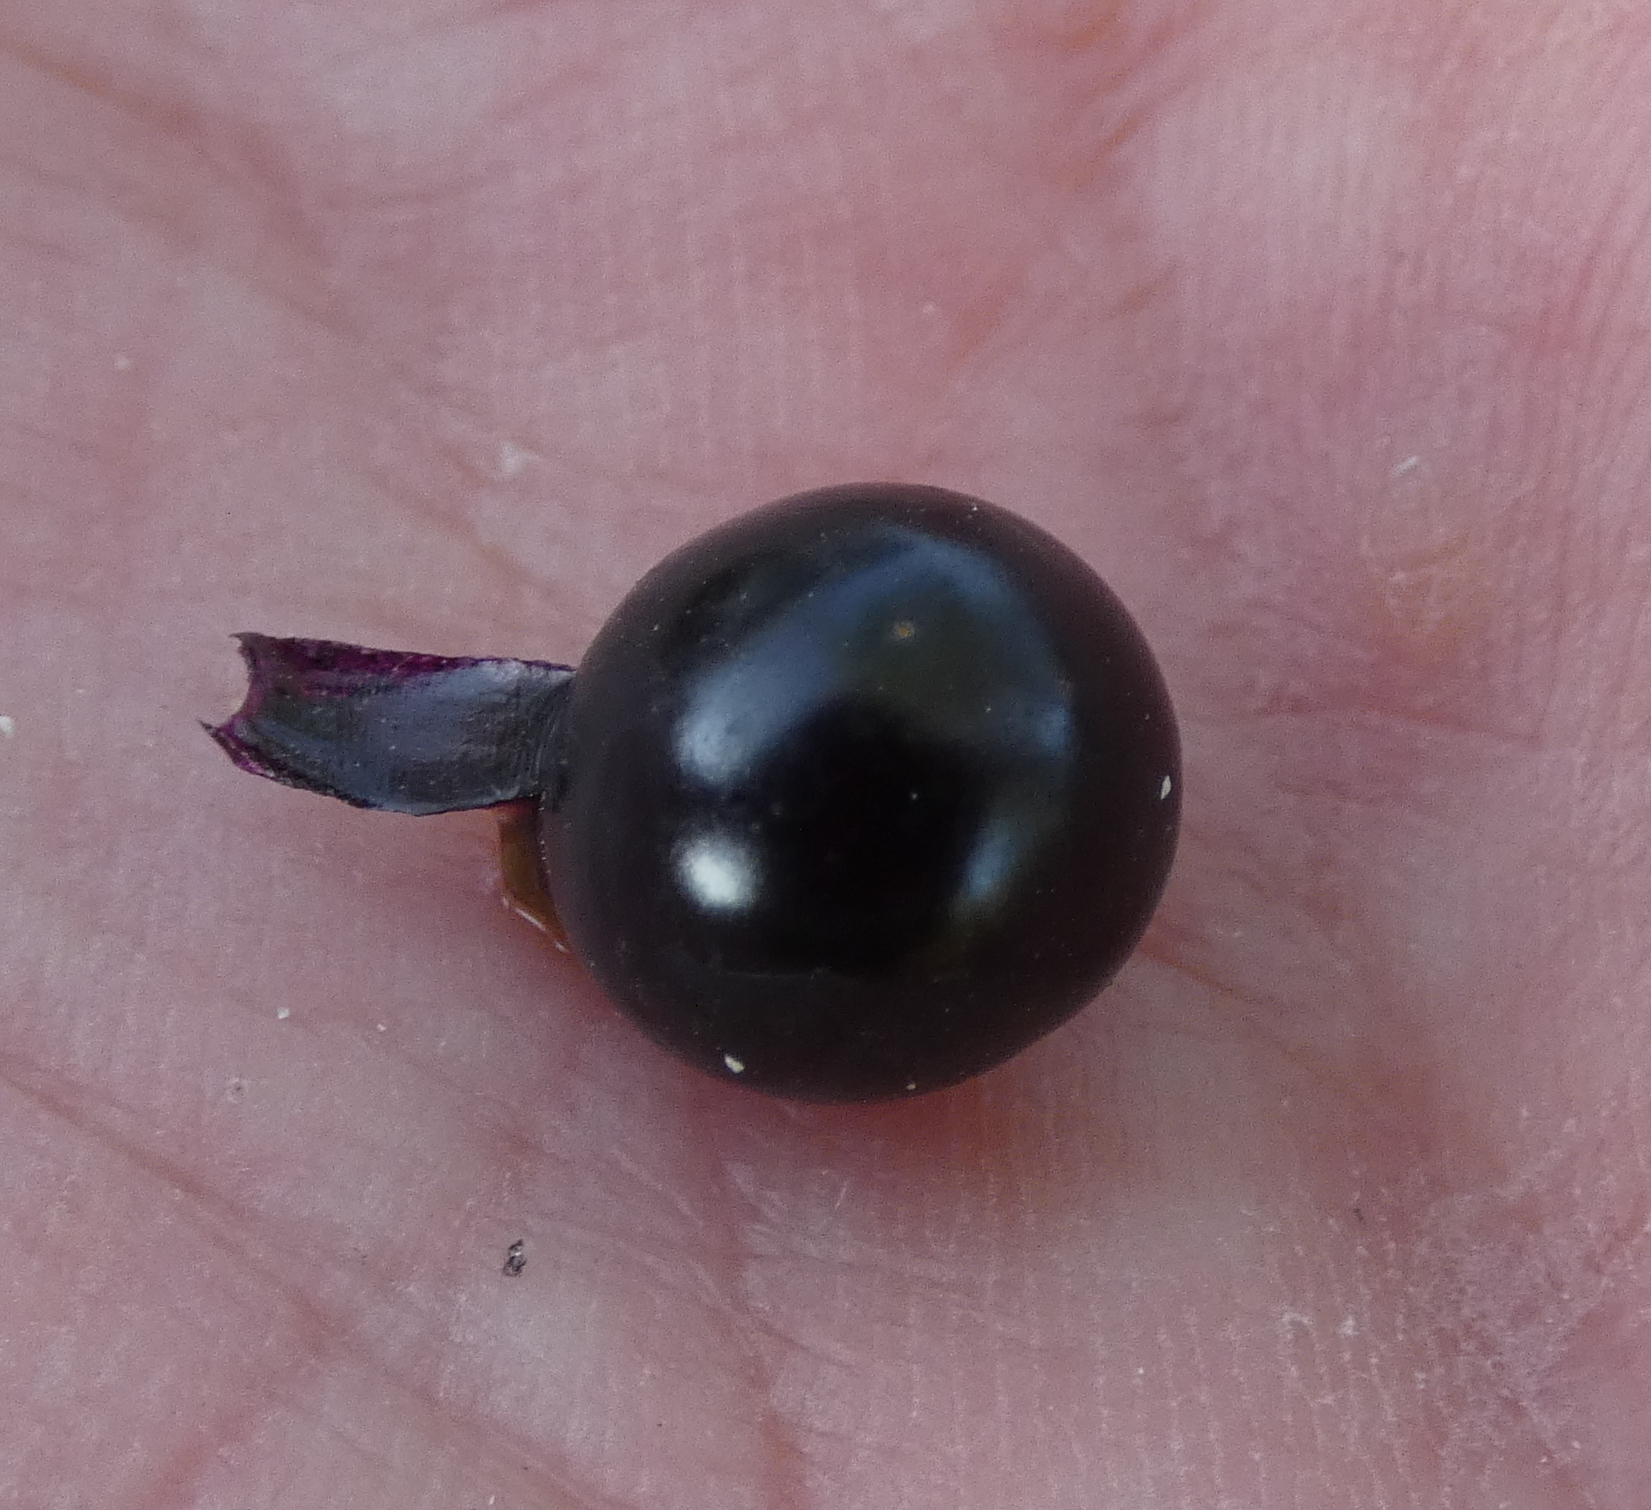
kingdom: Plantae
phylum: Tracheophyta
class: Magnoliopsida
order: Solanales
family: Solanaceae
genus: Solanum
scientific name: Solanum americanum
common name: American black nightshade
